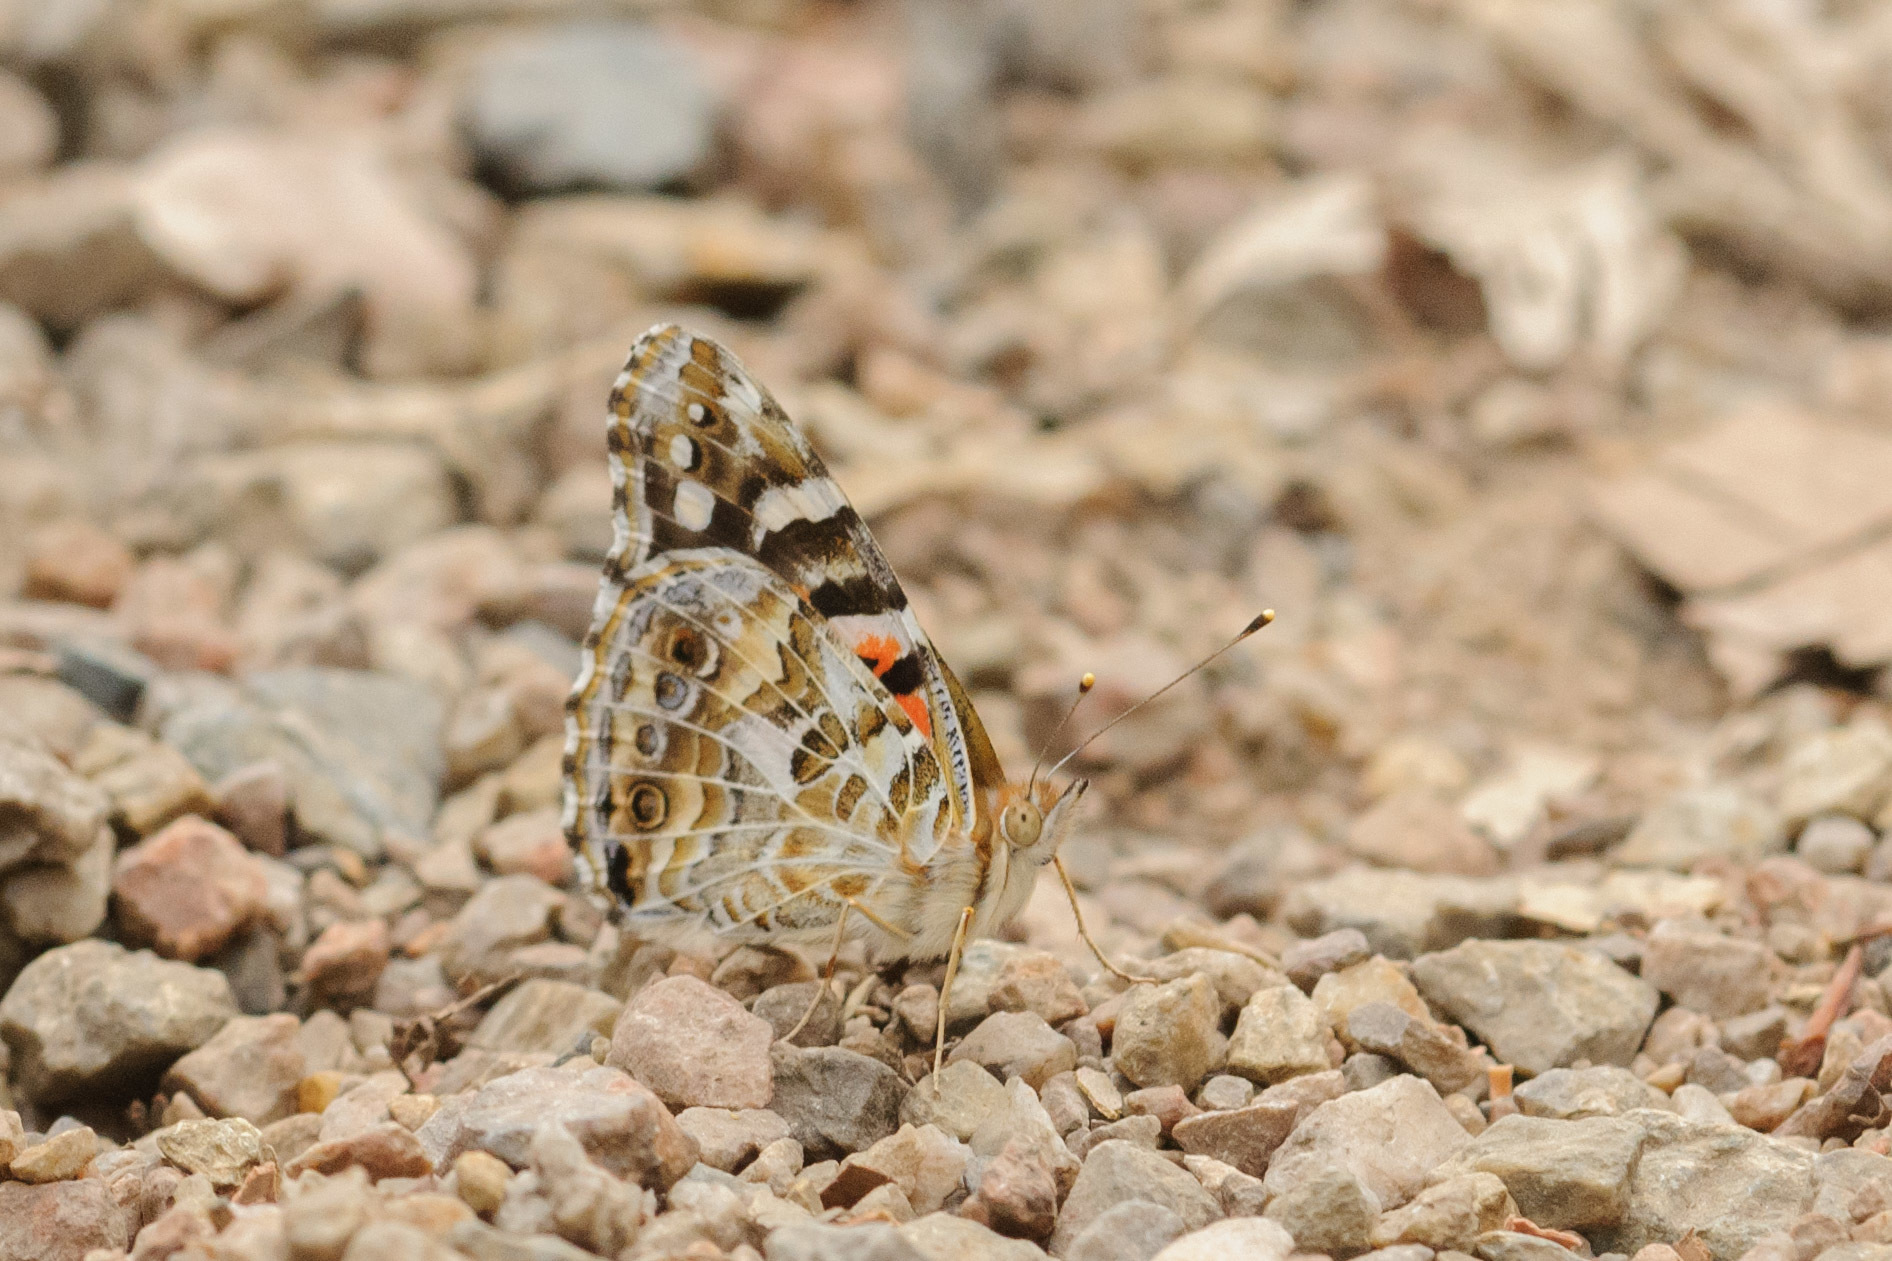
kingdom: Animalia
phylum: Arthropoda
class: Insecta
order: Lepidoptera
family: Nymphalidae
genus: Vanessa
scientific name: Vanessa kershawi
